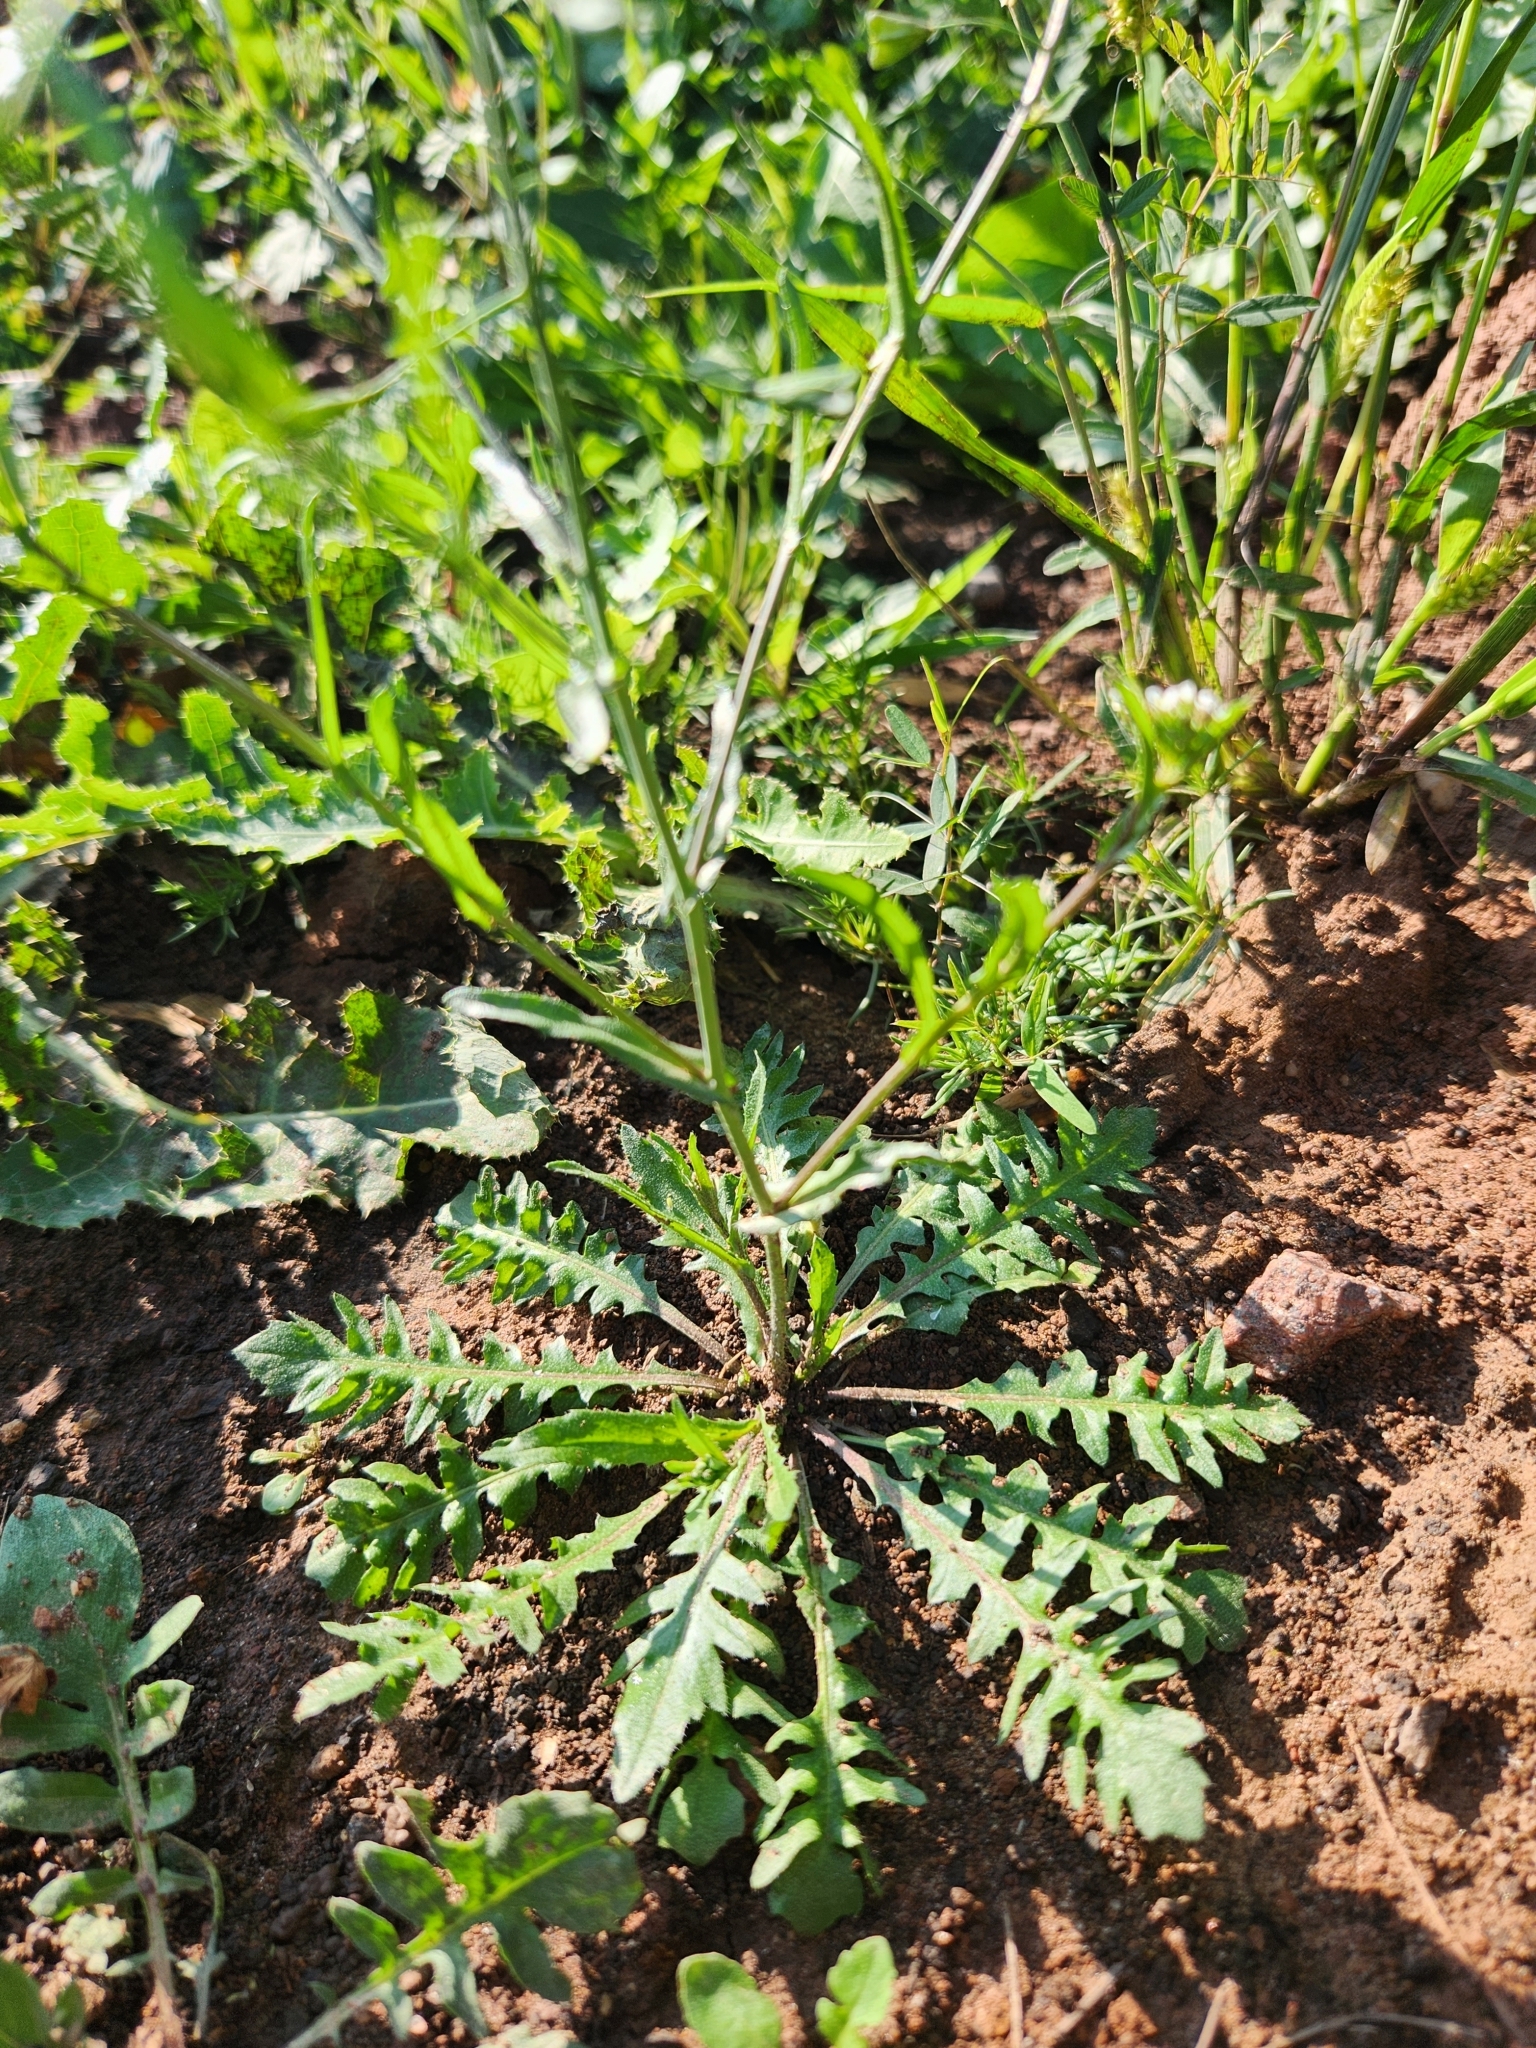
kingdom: Plantae
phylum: Tracheophyta
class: Magnoliopsida
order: Brassicales
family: Brassicaceae
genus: Capsella
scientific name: Capsella bursa-pastoris
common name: Shepherd's purse
